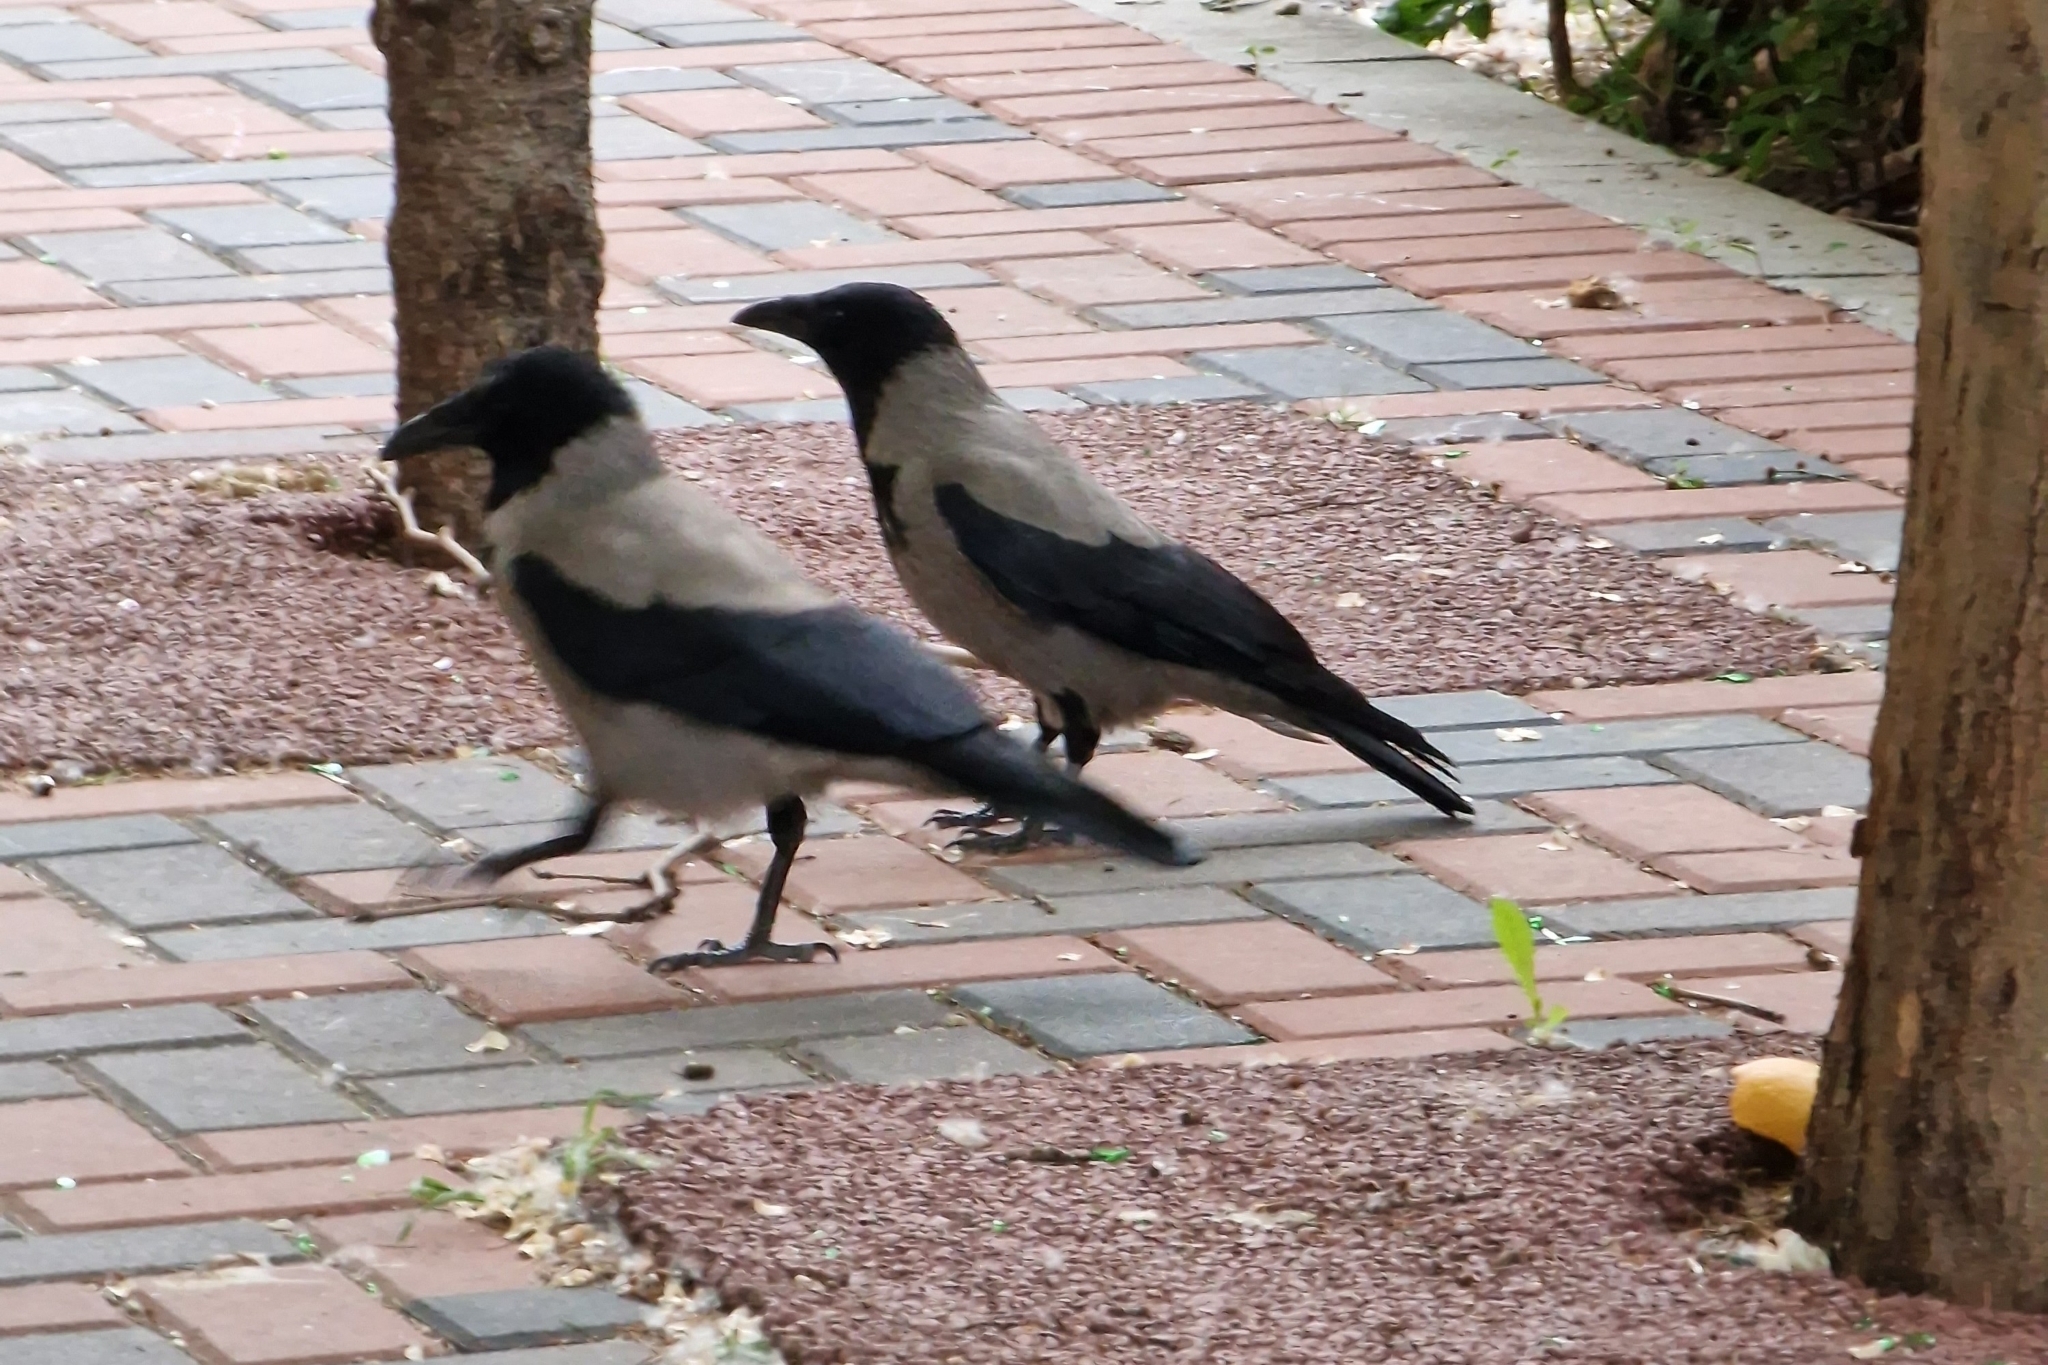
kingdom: Animalia
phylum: Chordata
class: Aves
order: Passeriformes
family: Corvidae
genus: Corvus
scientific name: Corvus cornix
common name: Hooded crow
